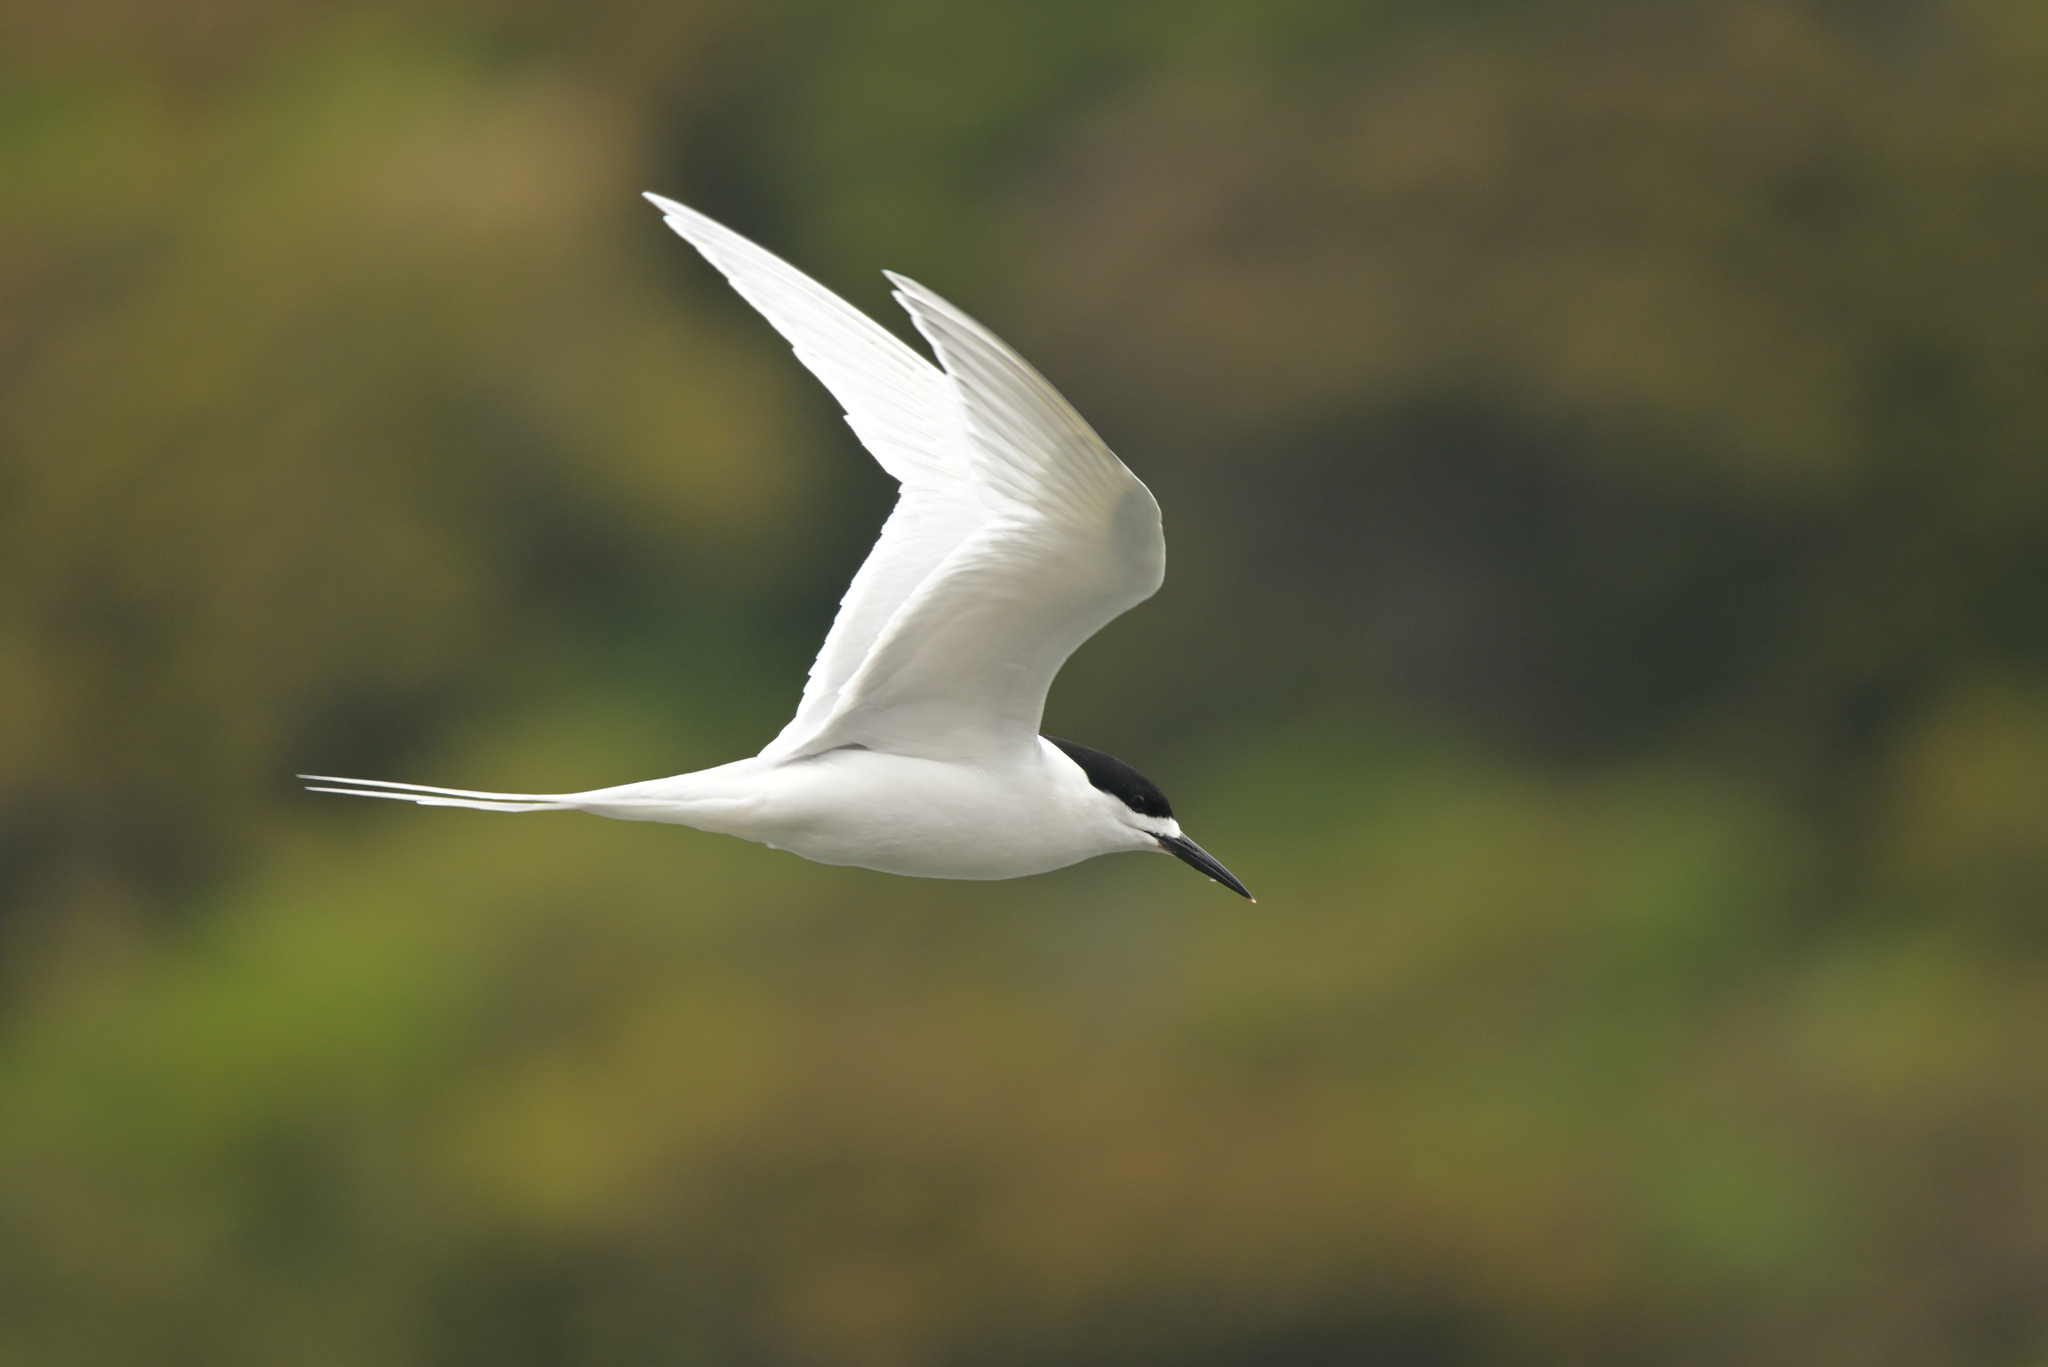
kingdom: Animalia
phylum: Chordata
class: Aves
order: Charadriiformes
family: Laridae
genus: Sterna
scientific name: Sterna striata
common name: White-fronted tern
